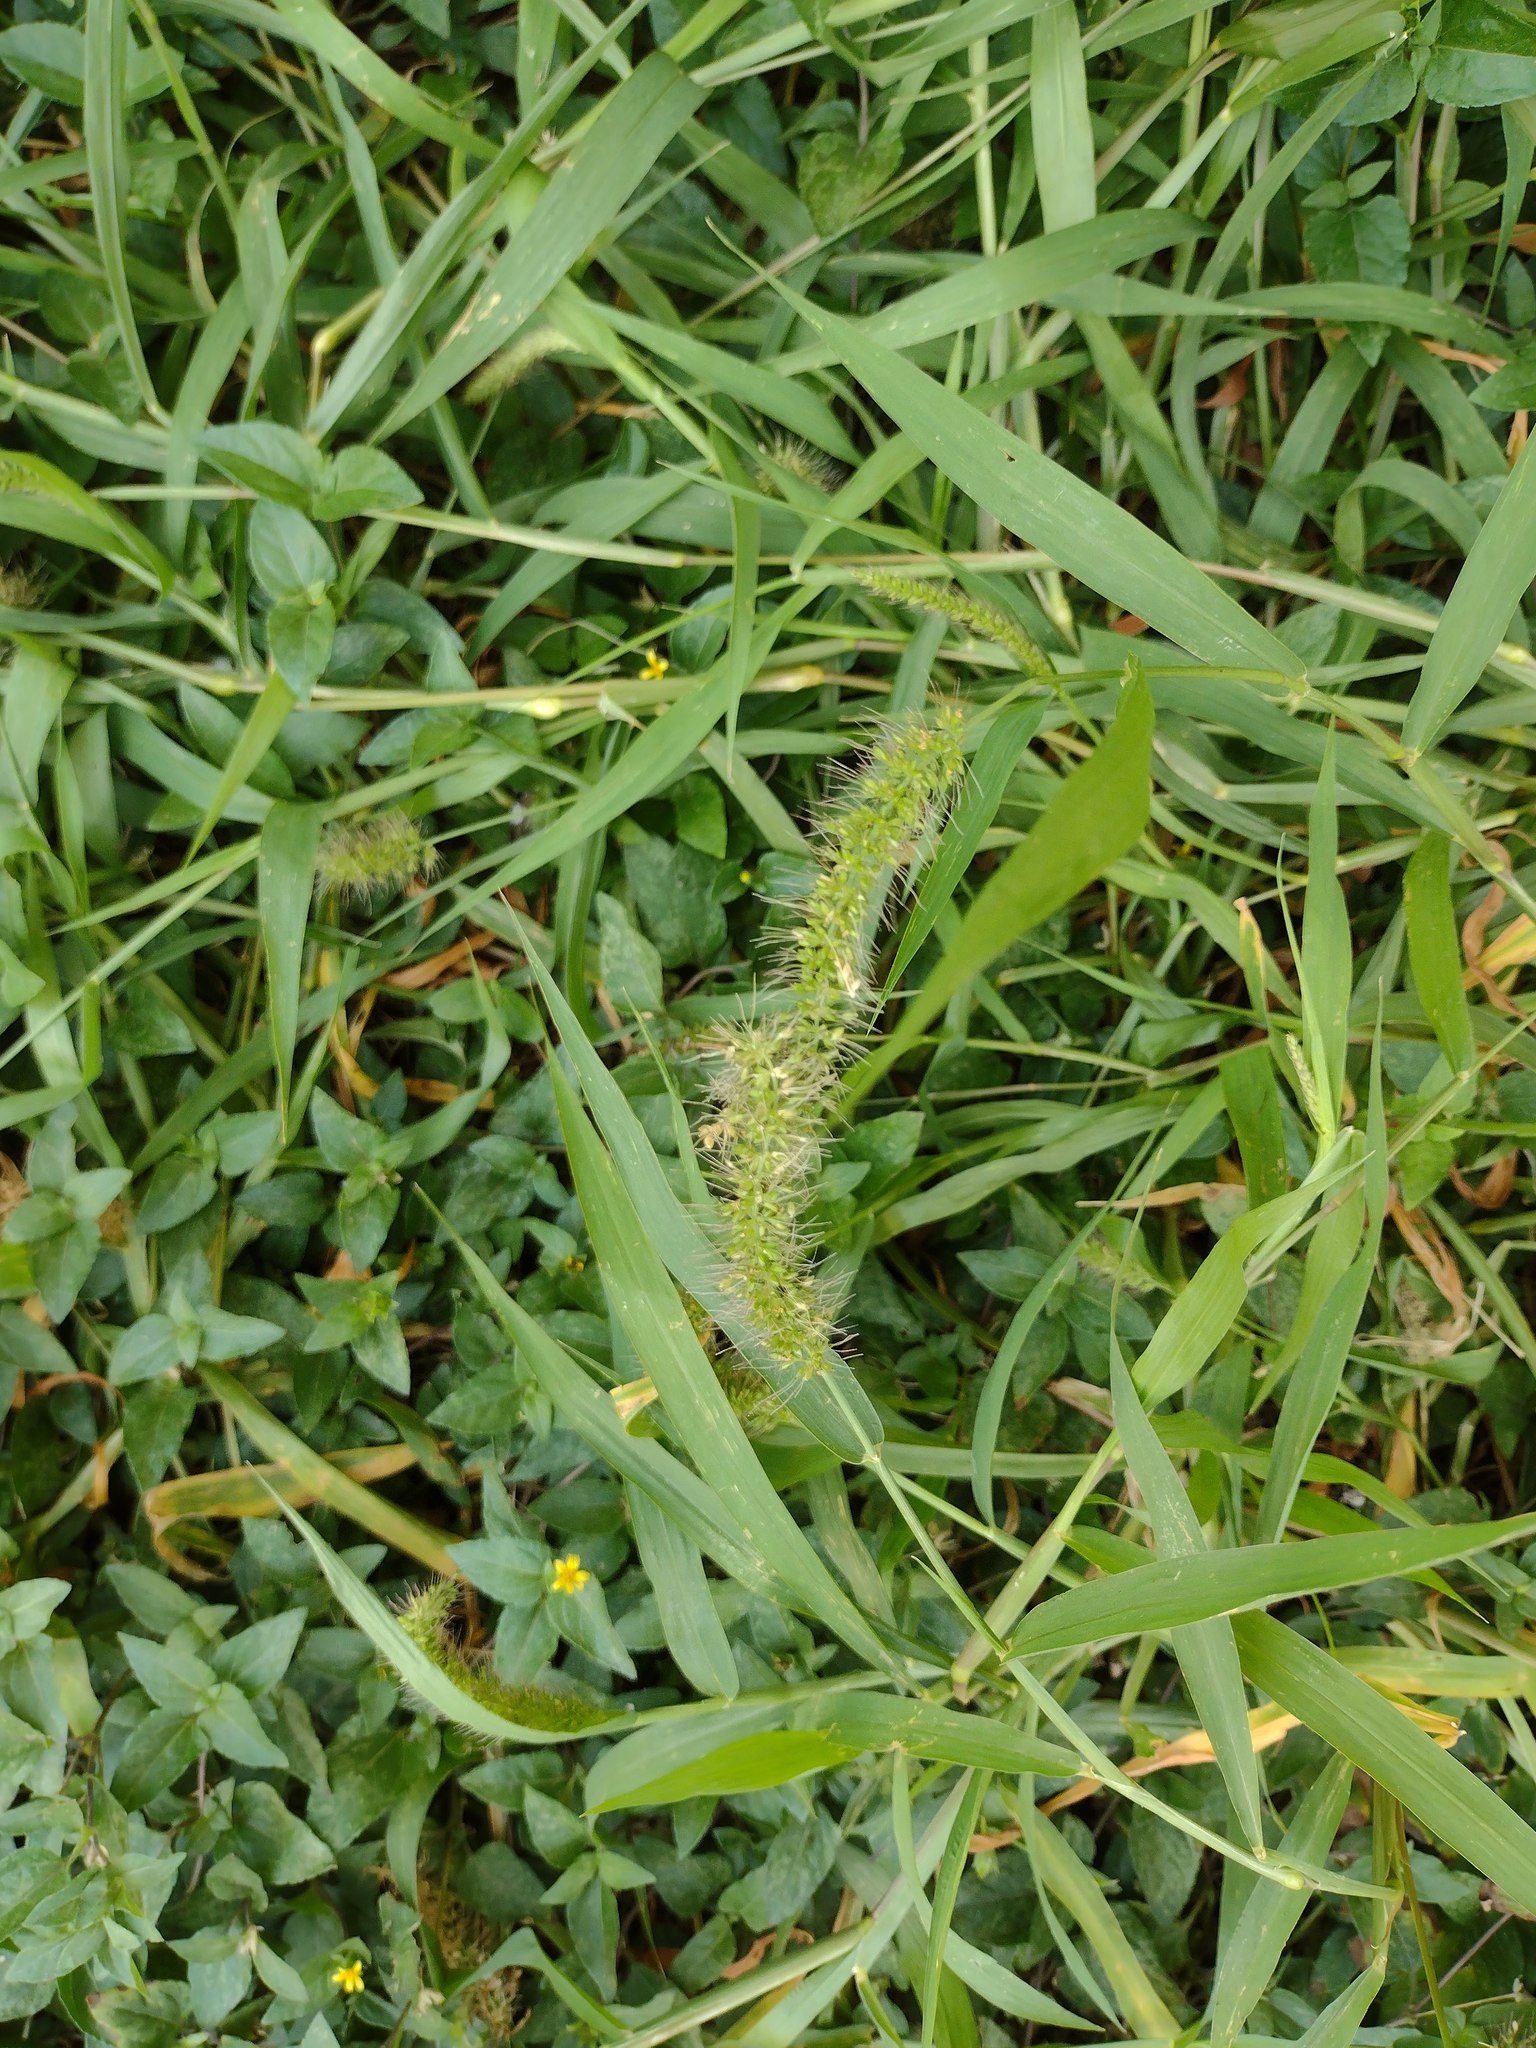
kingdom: Plantae
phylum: Tracheophyta
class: Liliopsida
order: Poales
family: Poaceae
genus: Setaria
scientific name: Setaria adhaerens
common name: Adherent bristle-grass
